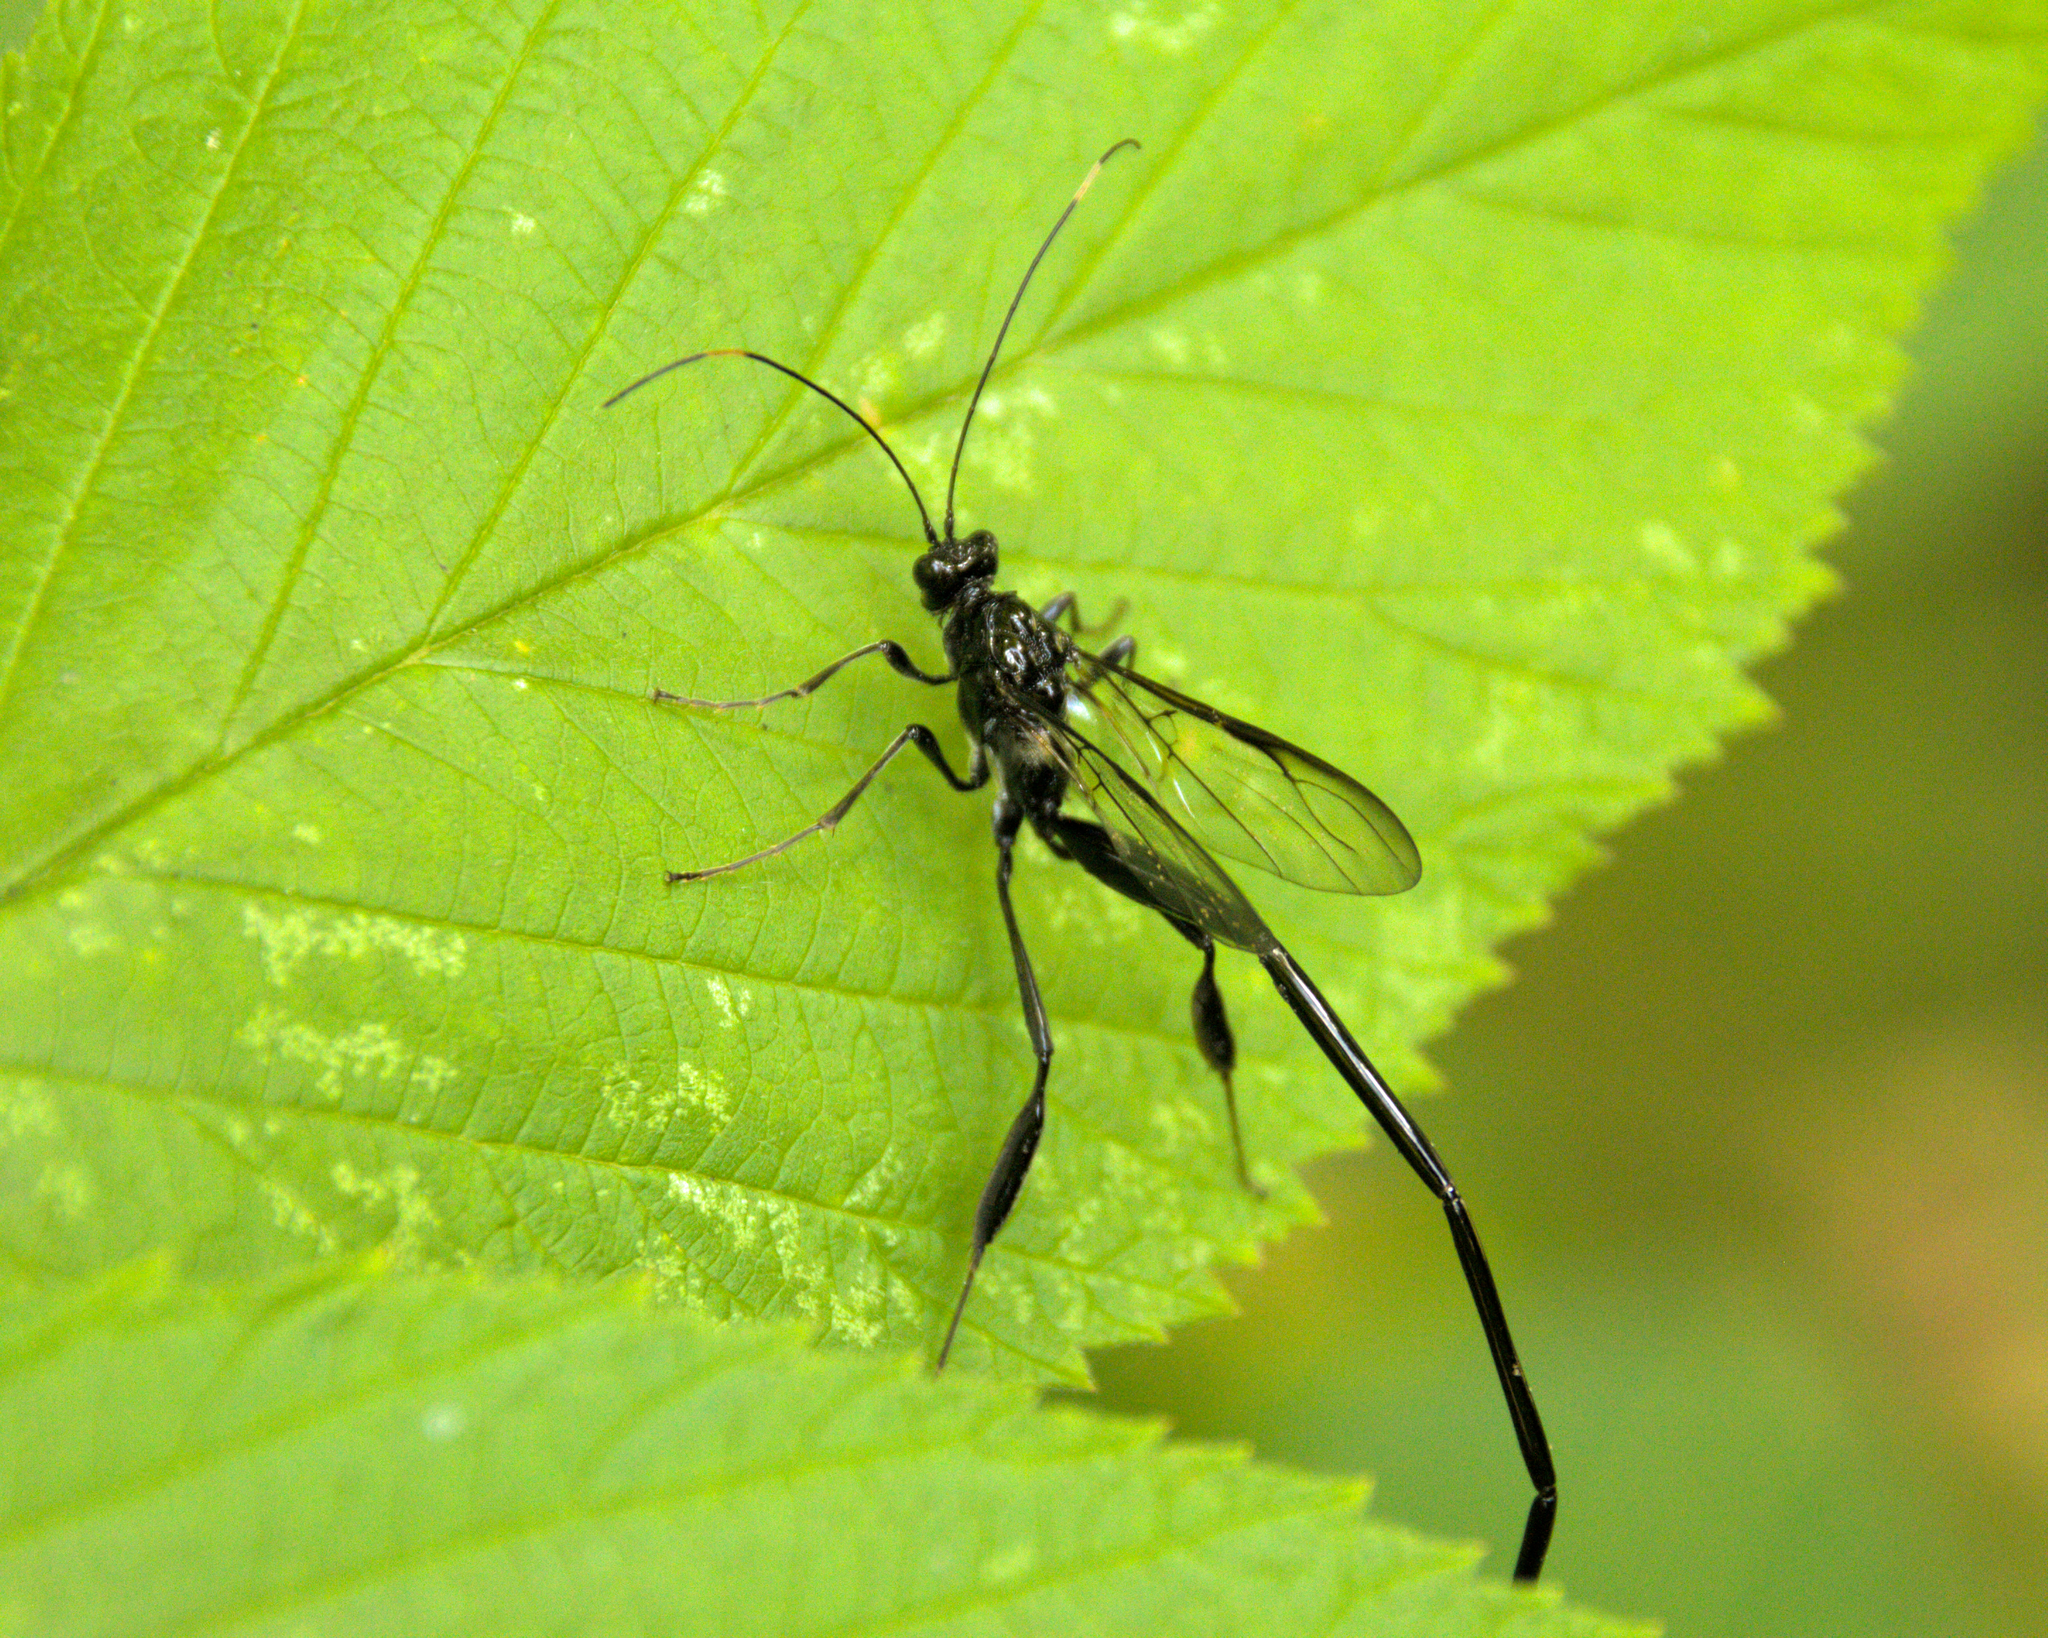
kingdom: Animalia
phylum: Arthropoda
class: Insecta
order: Hymenoptera
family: Pelecinidae
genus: Pelecinus
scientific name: Pelecinus polyturator
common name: American pelecinid wasp
